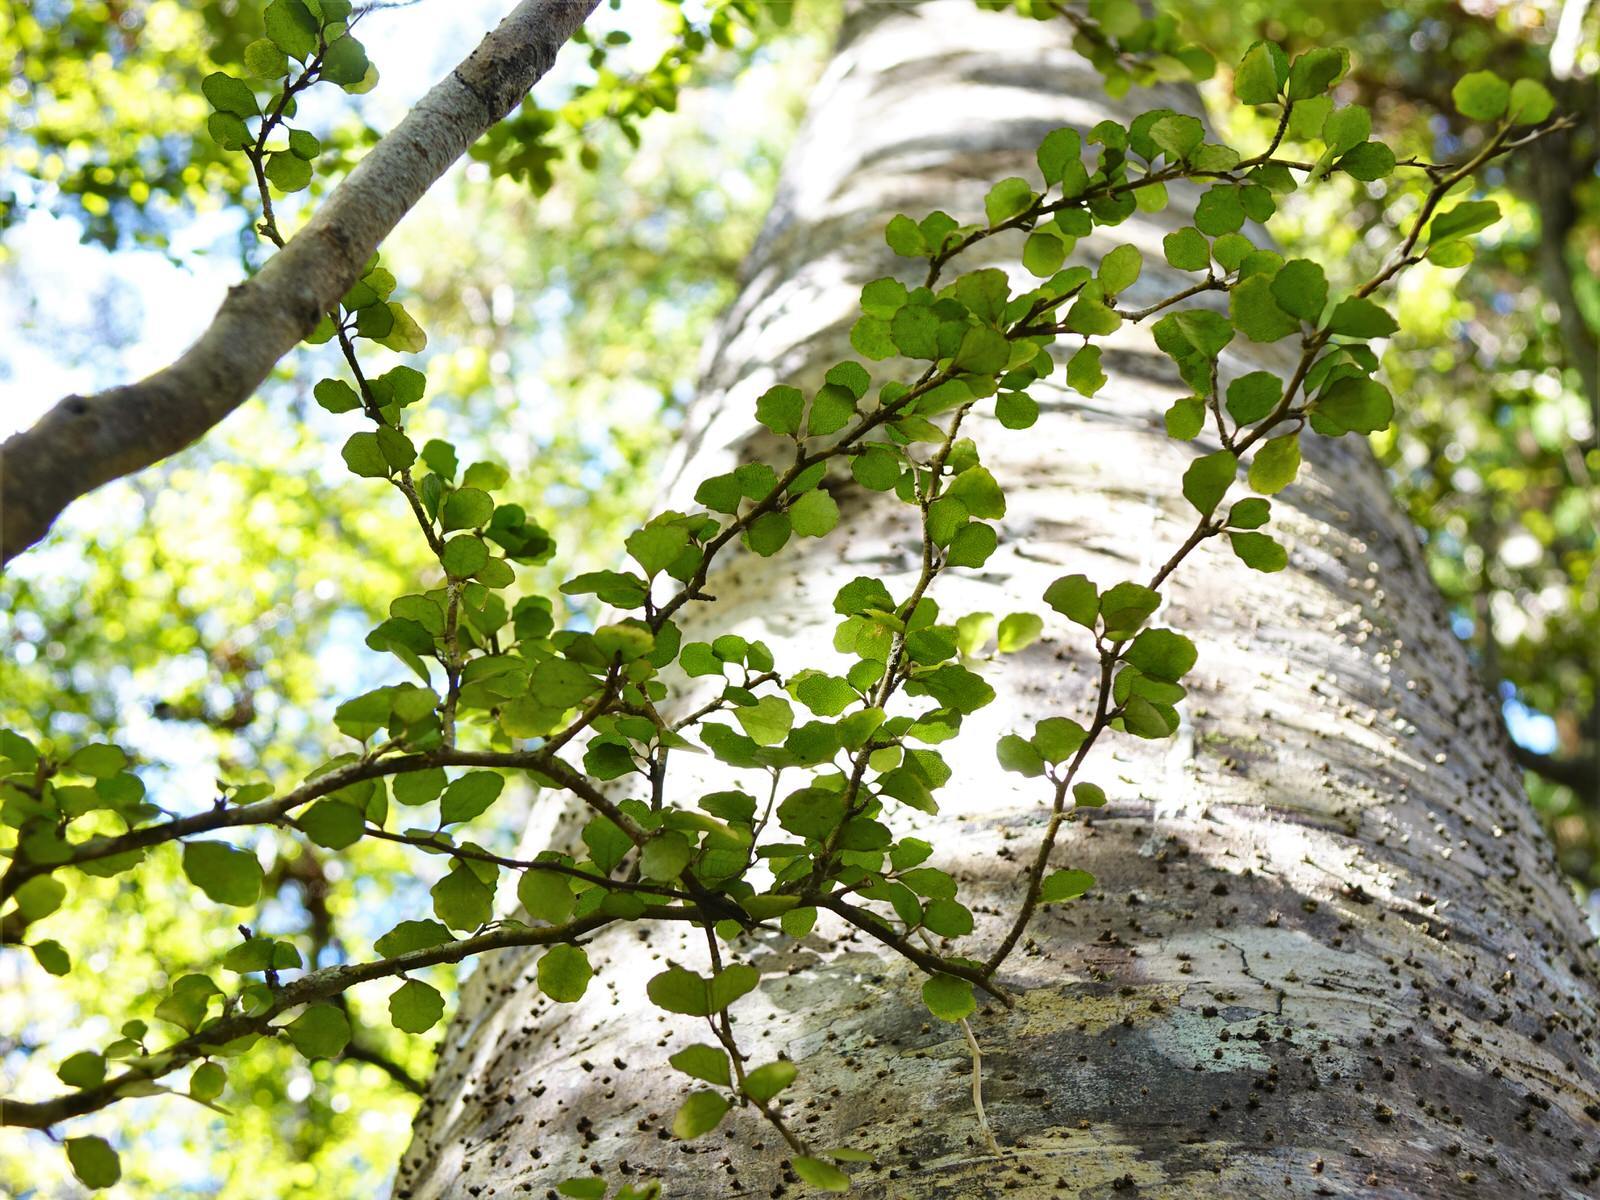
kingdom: Plantae
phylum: Tracheophyta
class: Magnoliopsida
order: Malpighiales
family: Violaceae
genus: Melicytus
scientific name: Melicytus micranthus
